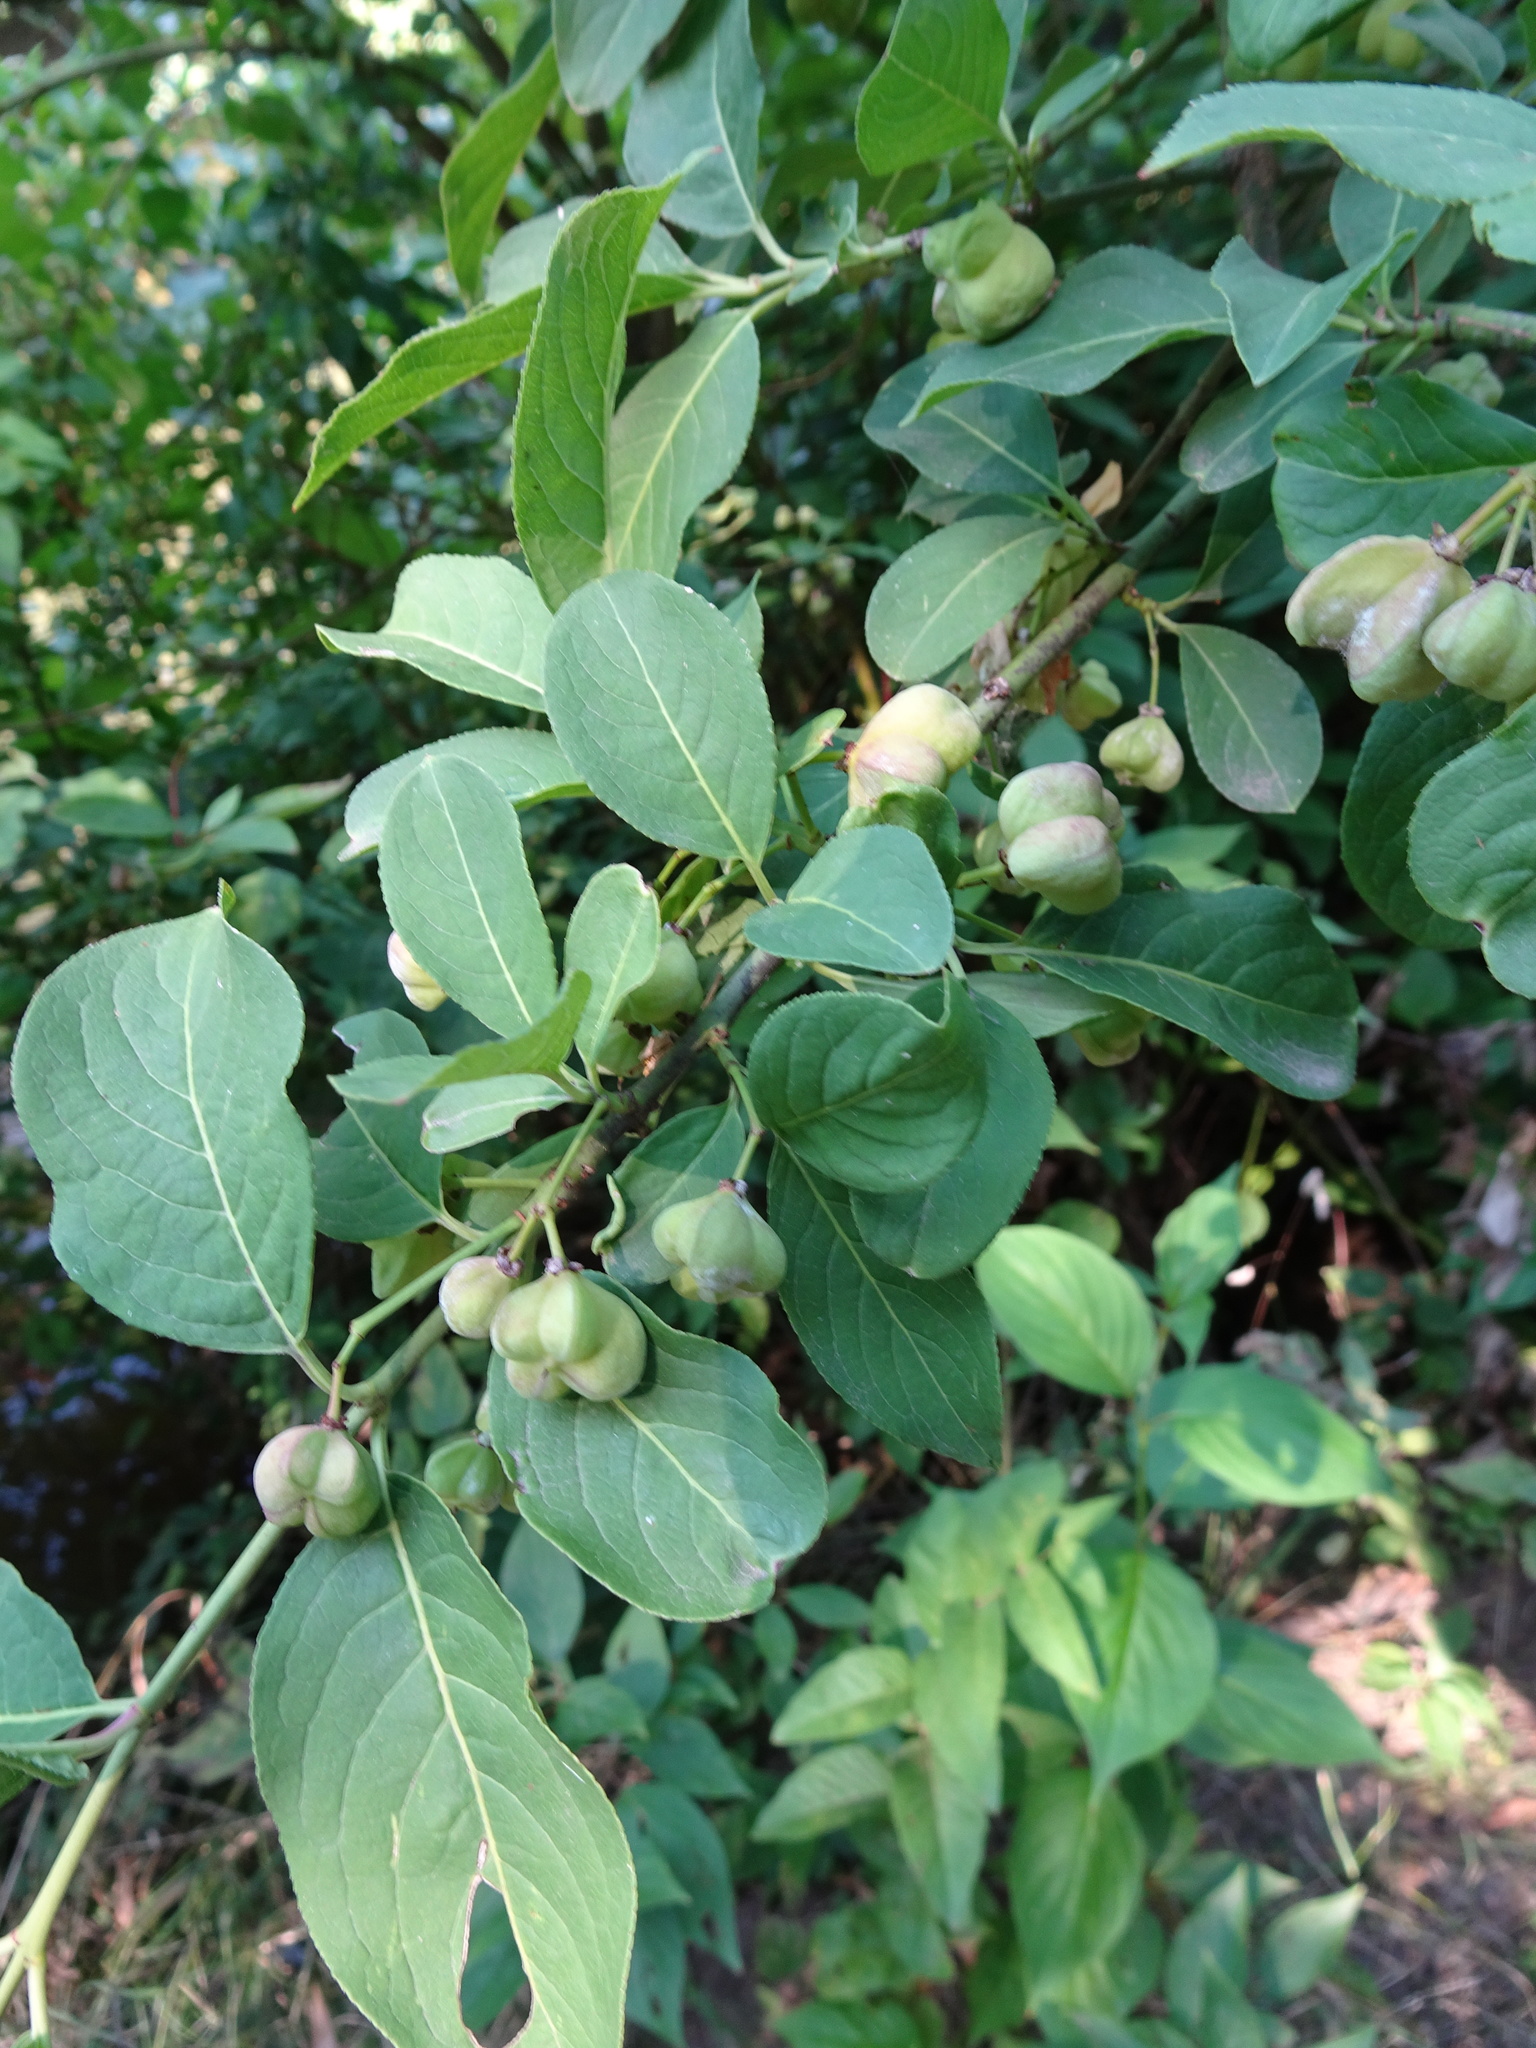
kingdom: Plantae
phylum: Tracheophyta
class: Magnoliopsida
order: Celastrales
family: Celastraceae
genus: Euonymus
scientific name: Euonymus europaeus
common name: Spindle
